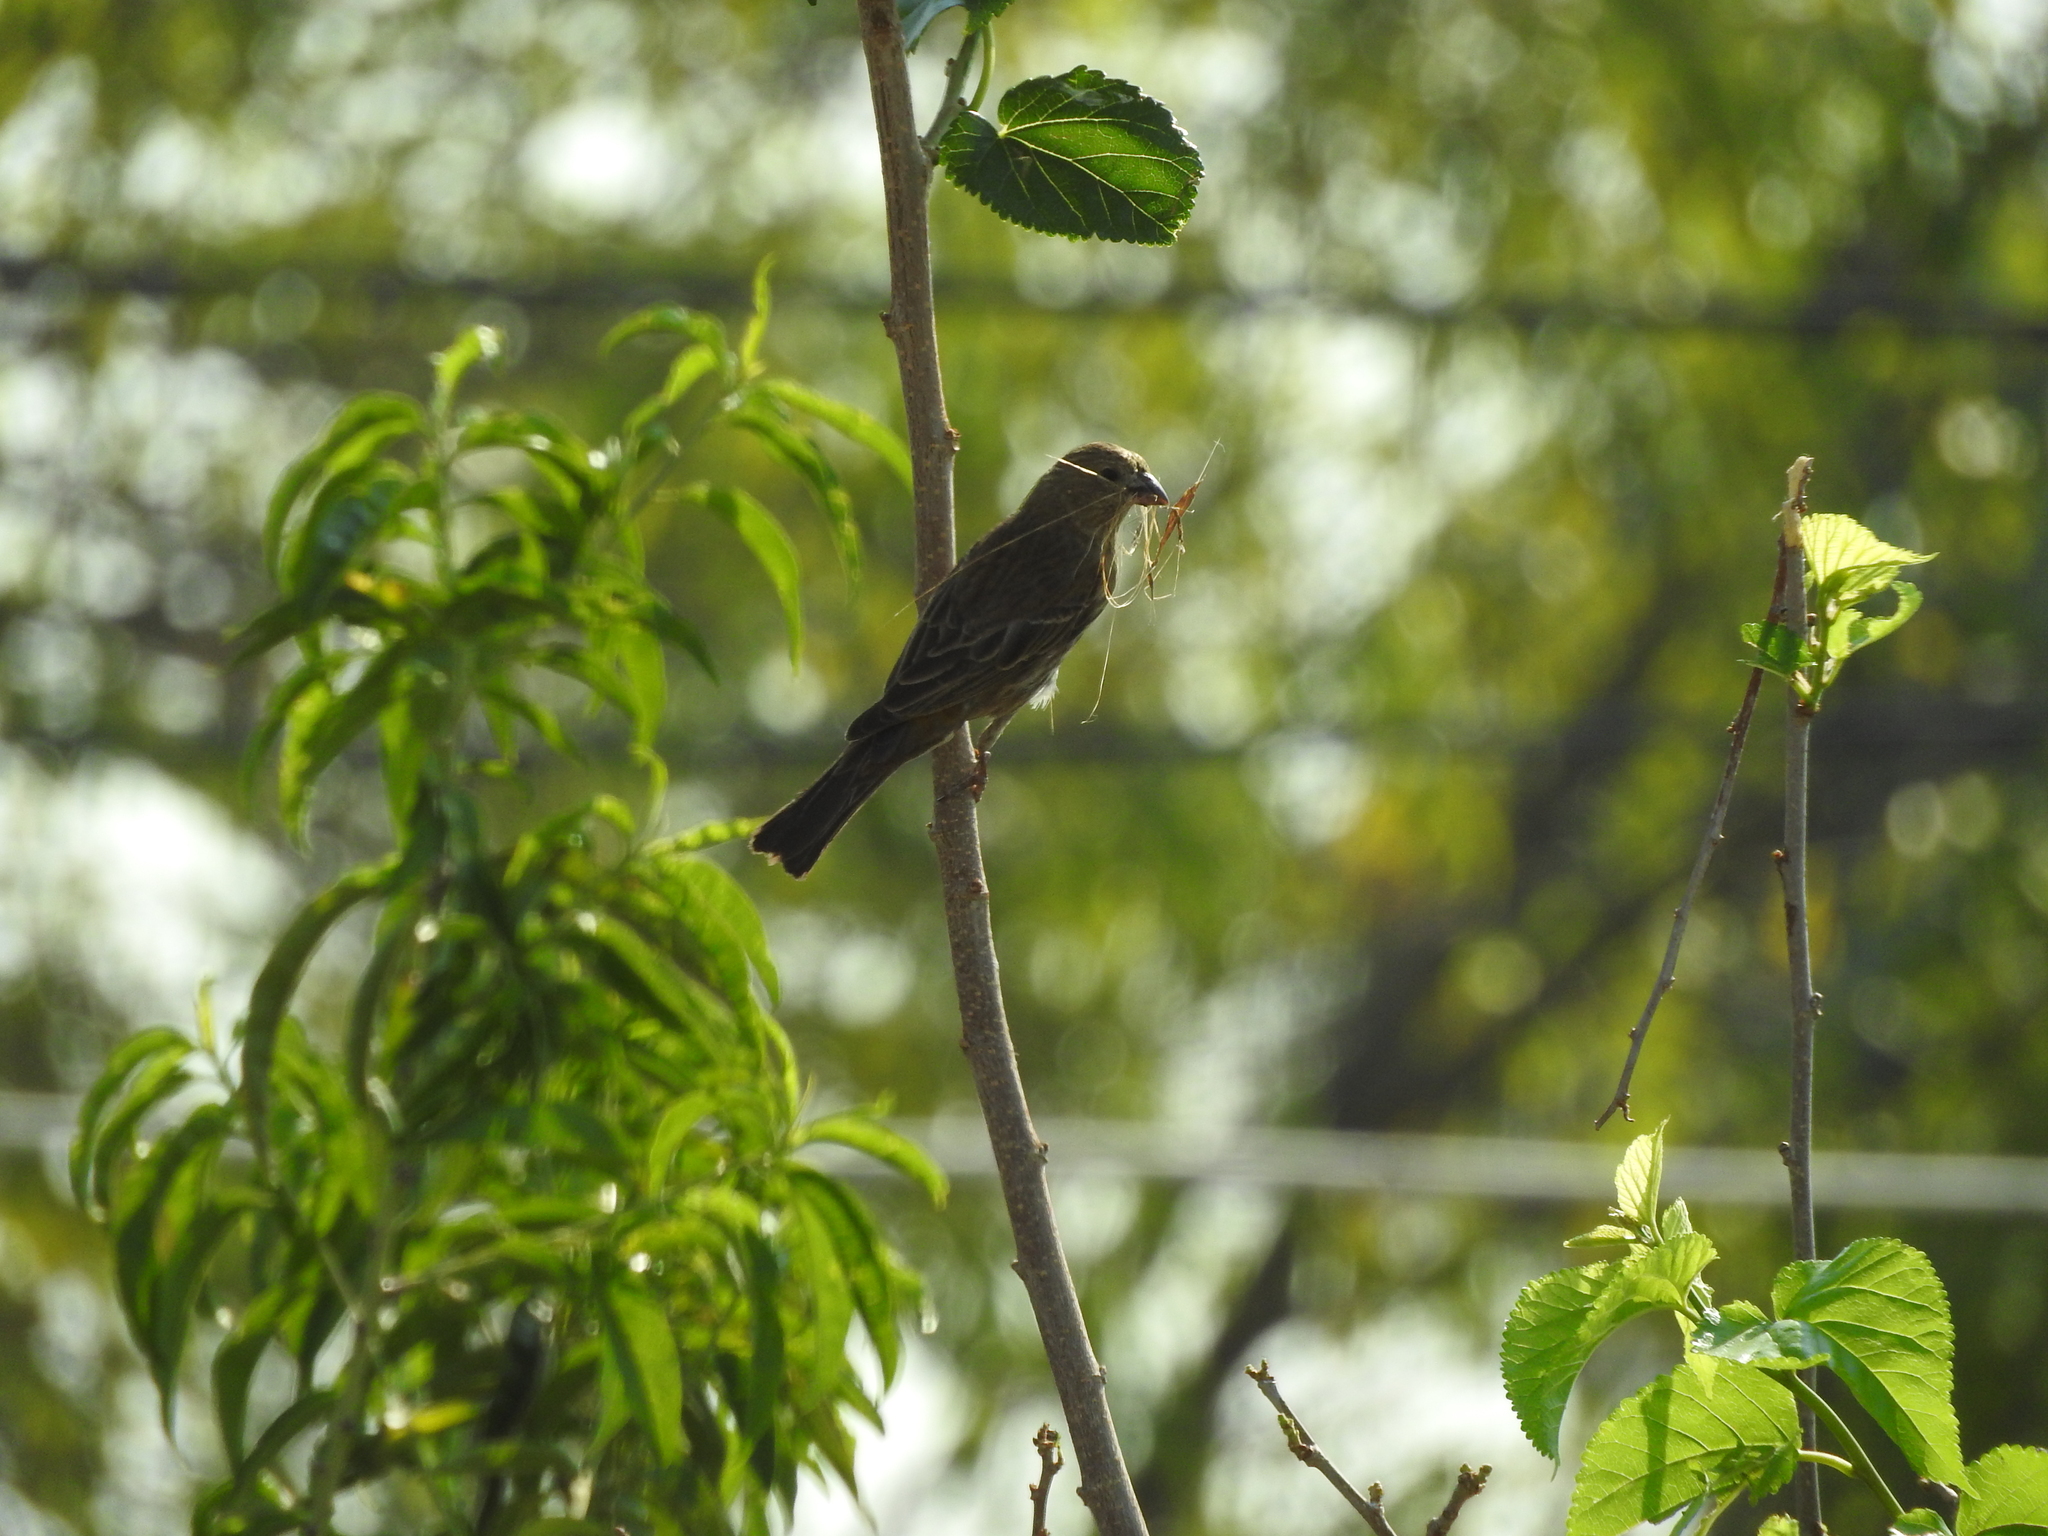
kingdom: Animalia
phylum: Chordata
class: Aves
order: Passeriformes
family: Fringillidae
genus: Haemorhous
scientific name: Haemorhous mexicanus
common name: House finch
